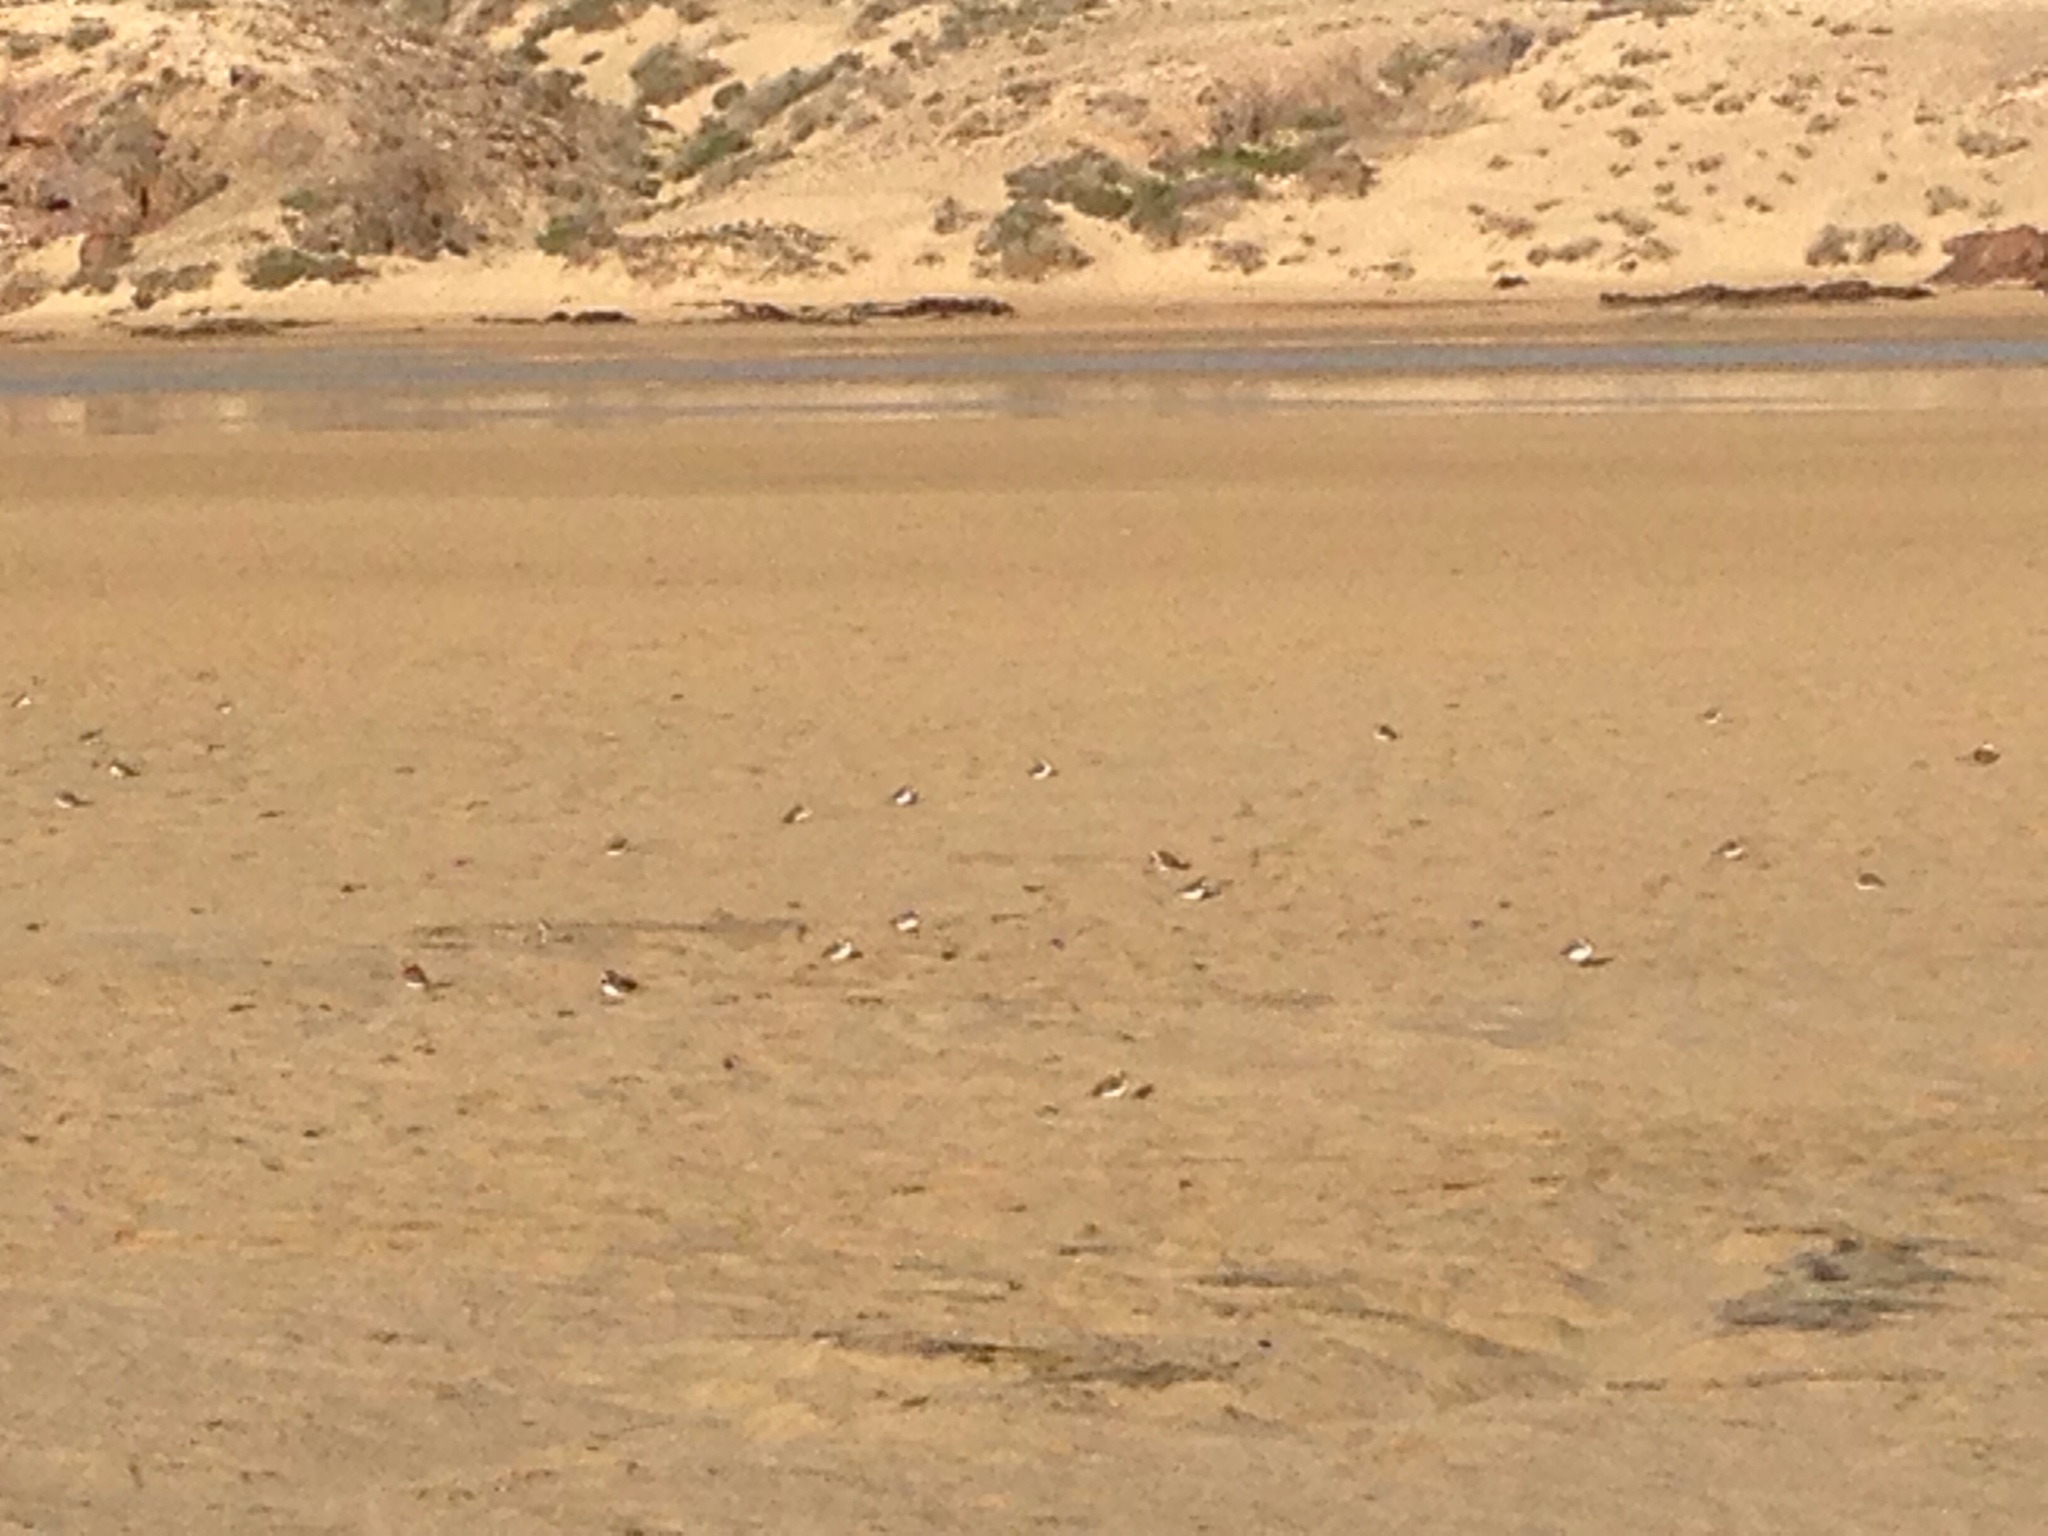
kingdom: Animalia
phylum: Chordata
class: Aves
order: Charadriiformes
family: Charadriidae
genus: Charadrius
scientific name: Charadrius alexandrinus
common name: Kentish plover
